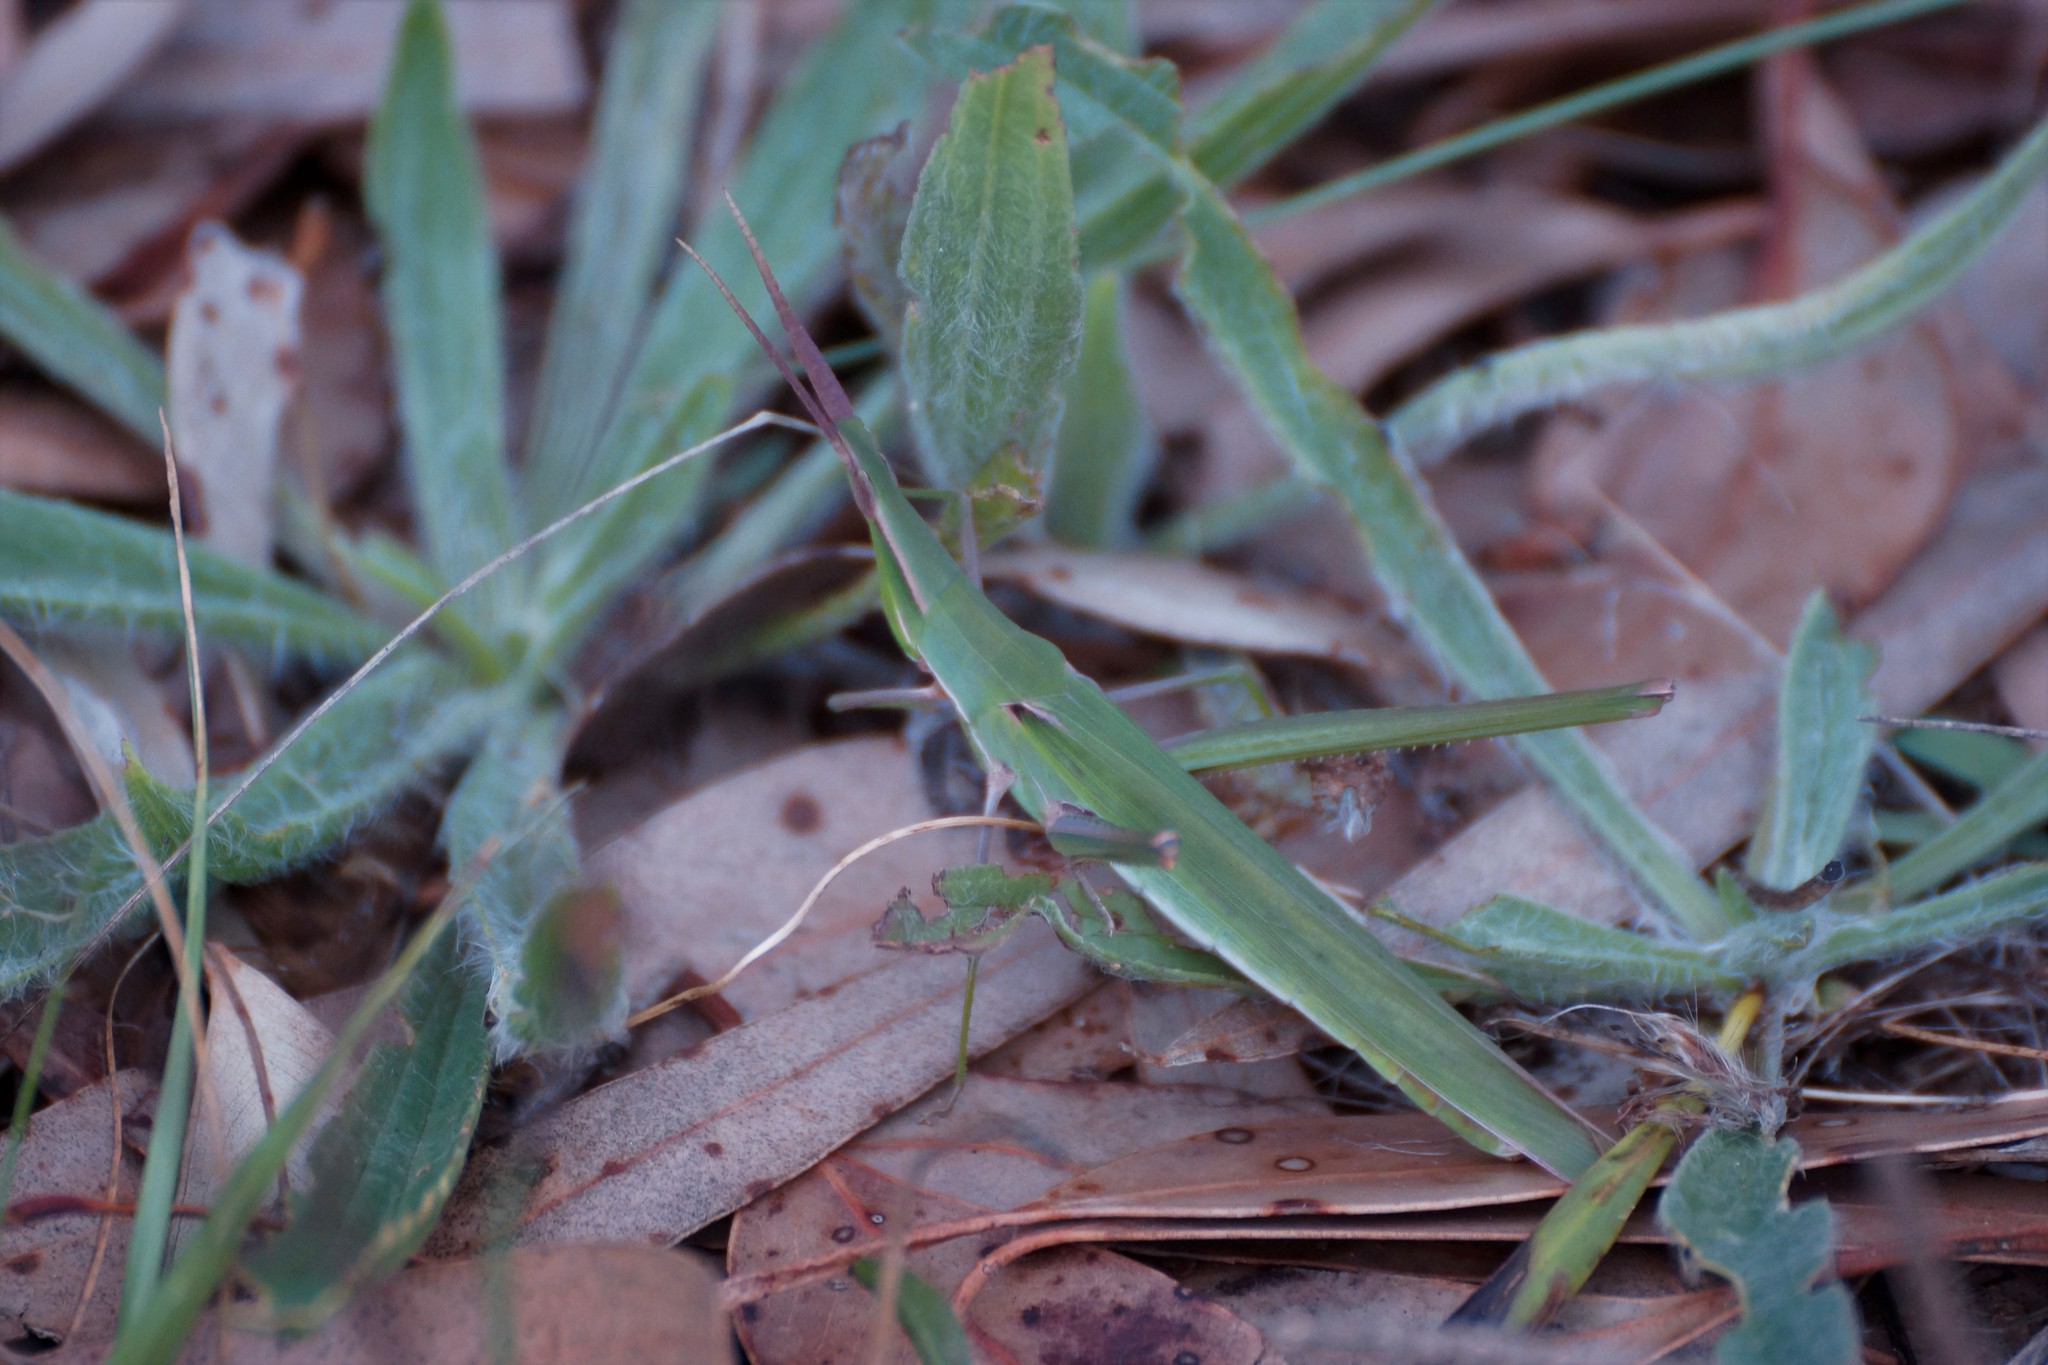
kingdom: Animalia
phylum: Arthropoda
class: Insecta
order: Orthoptera
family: Acrididae
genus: Acrida
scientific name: Acrida conica
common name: Giant green slantface
